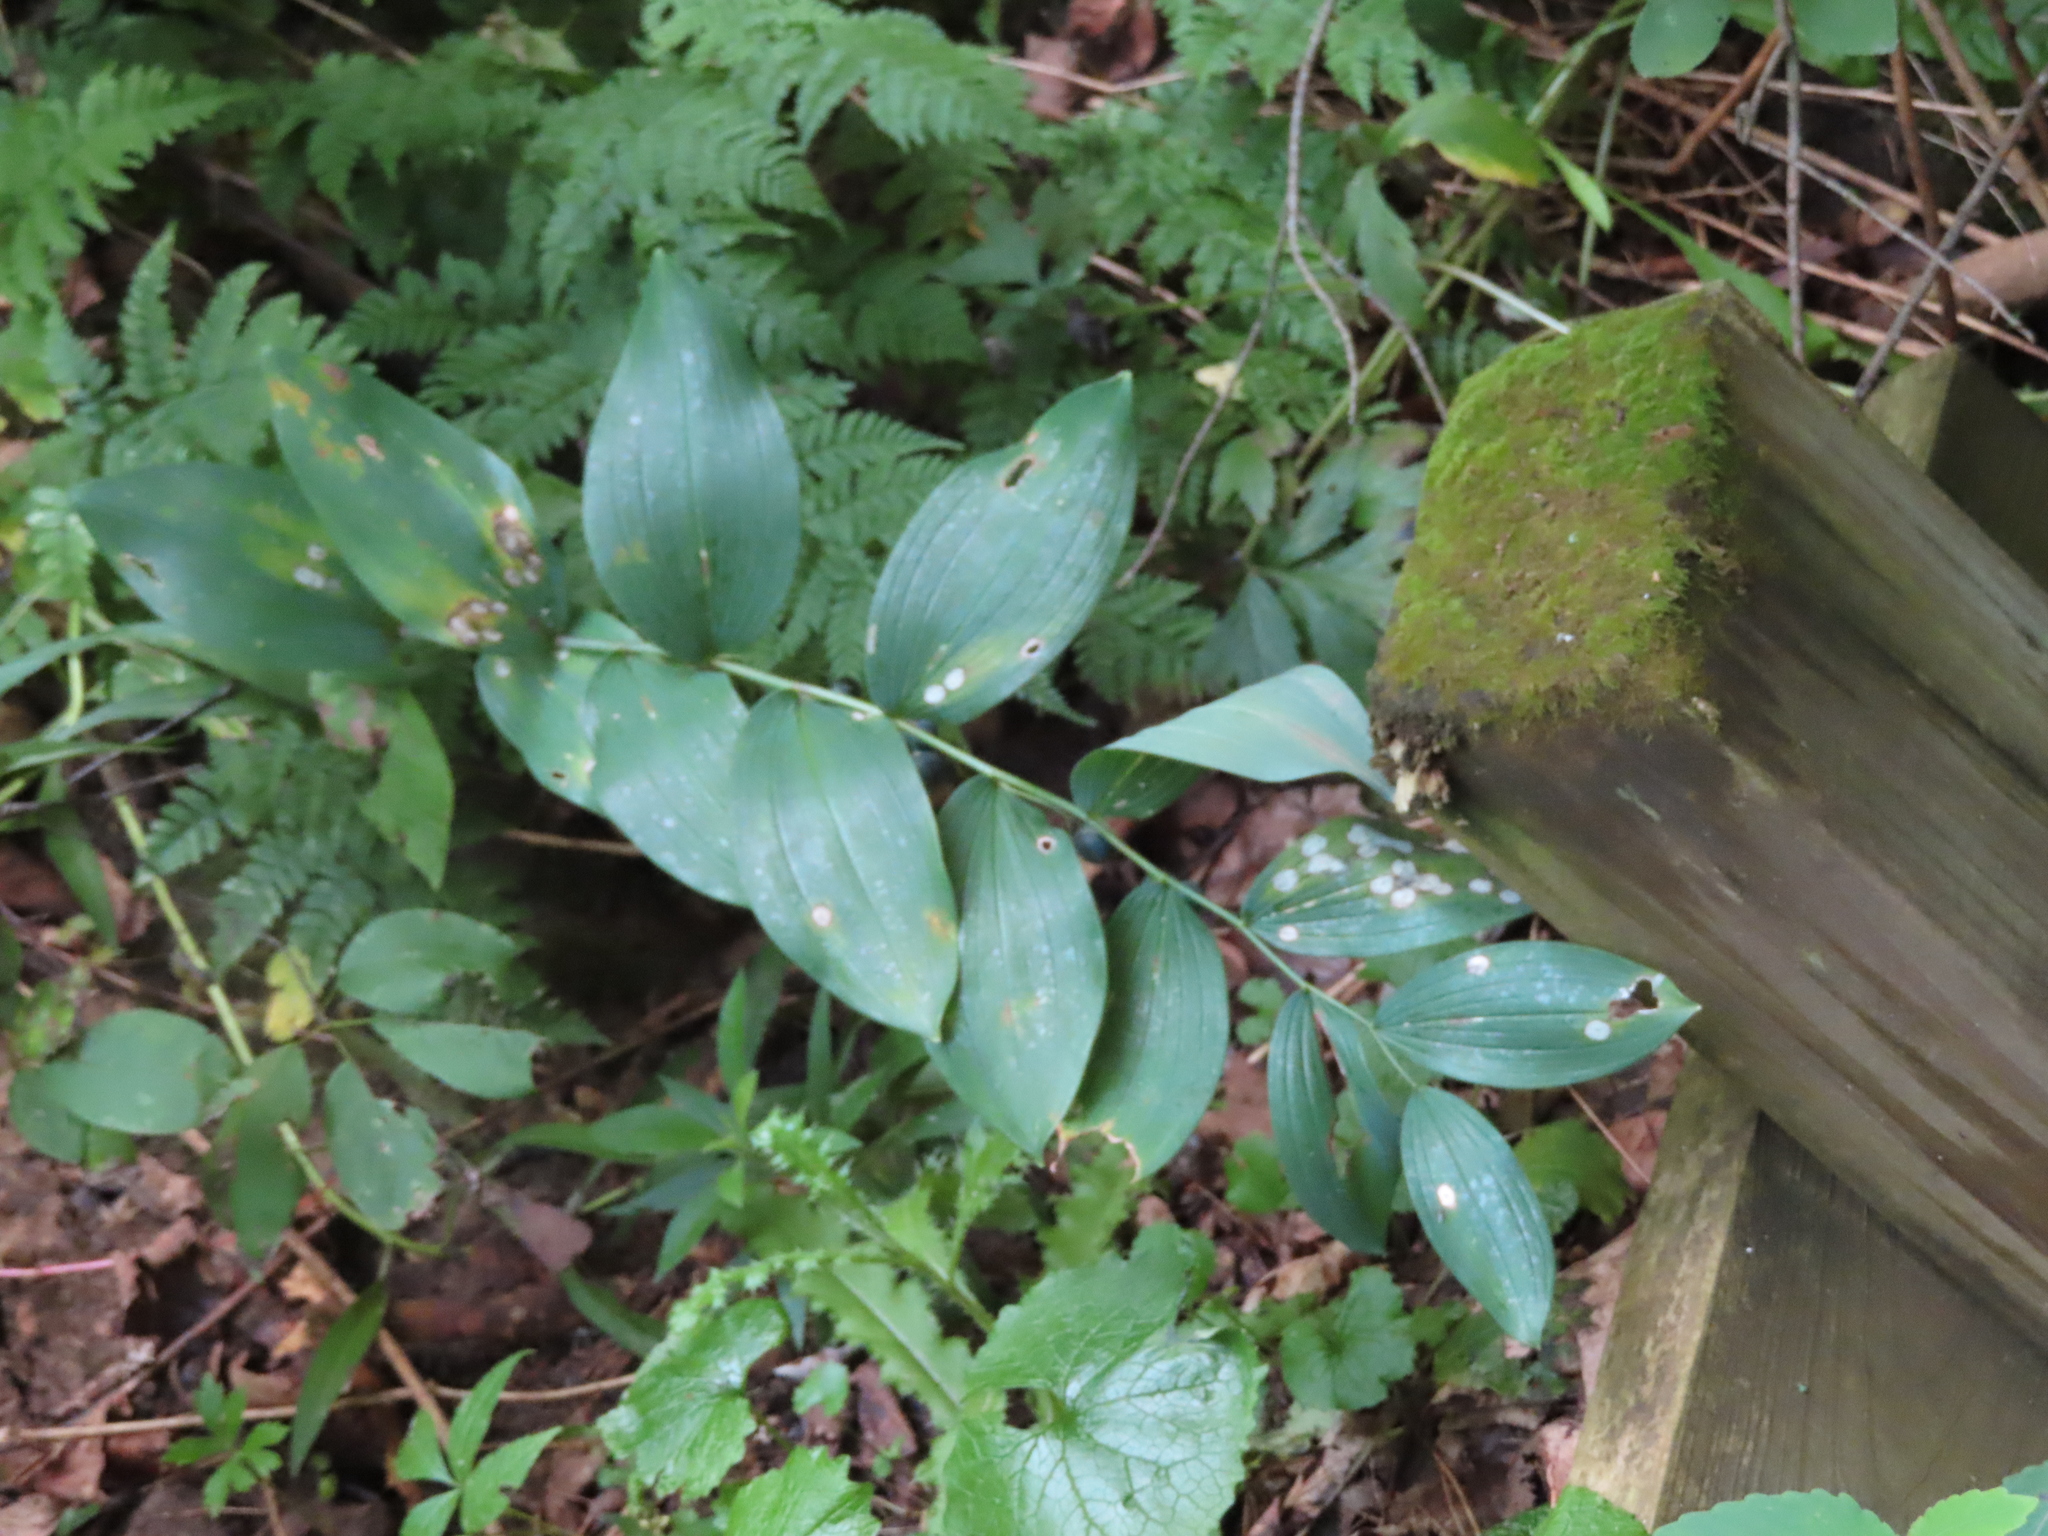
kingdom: Plantae
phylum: Tracheophyta
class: Liliopsida
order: Asparagales
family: Asparagaceae
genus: Polygonatum
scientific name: Polygonatum biflorum
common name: American solomon's-seal
